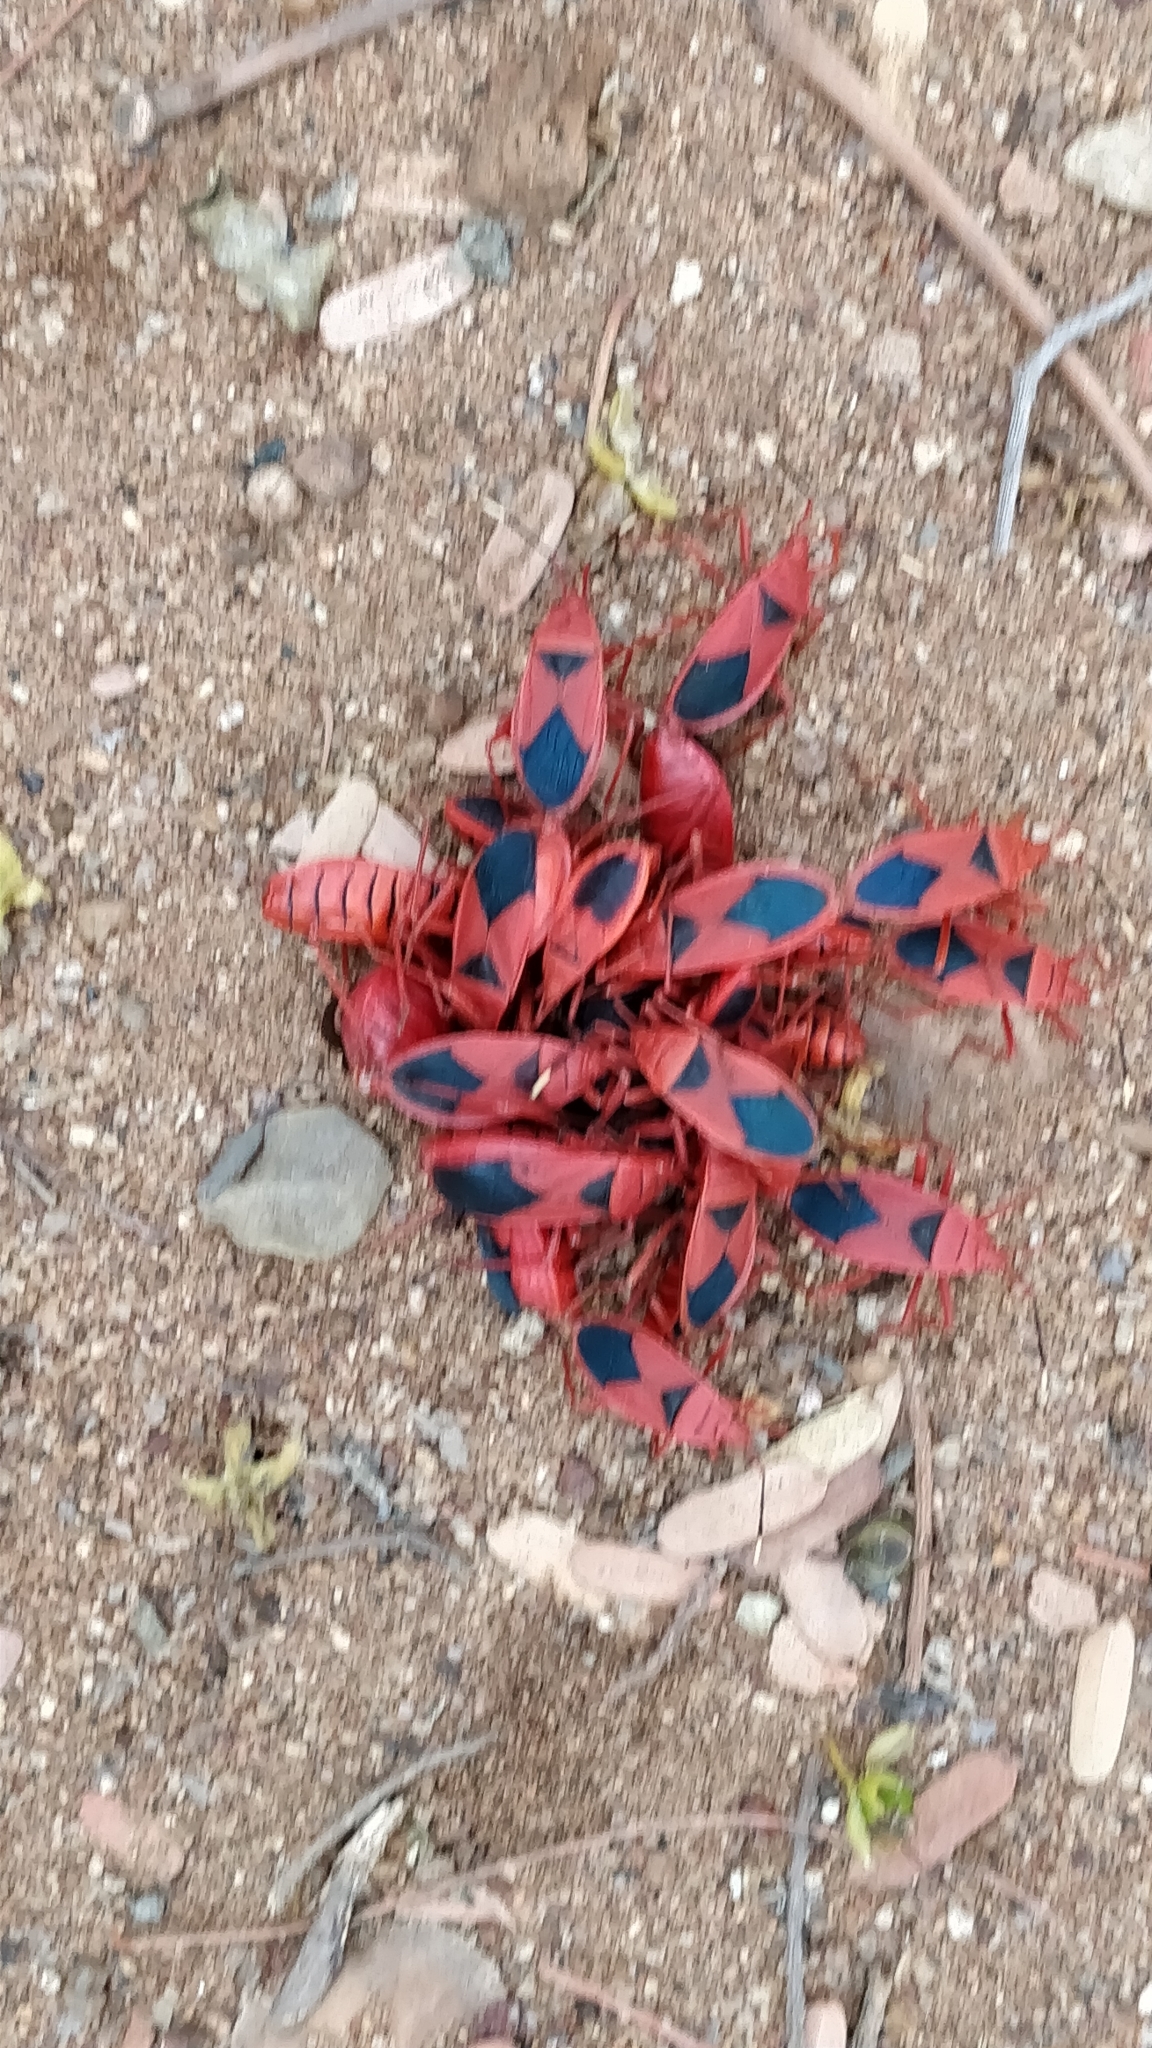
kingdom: Animalia
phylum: Arthropoda
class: Insecta
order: Hemiptera
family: Pyrrhocoridae
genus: Probergrothius
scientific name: Probergrothius
